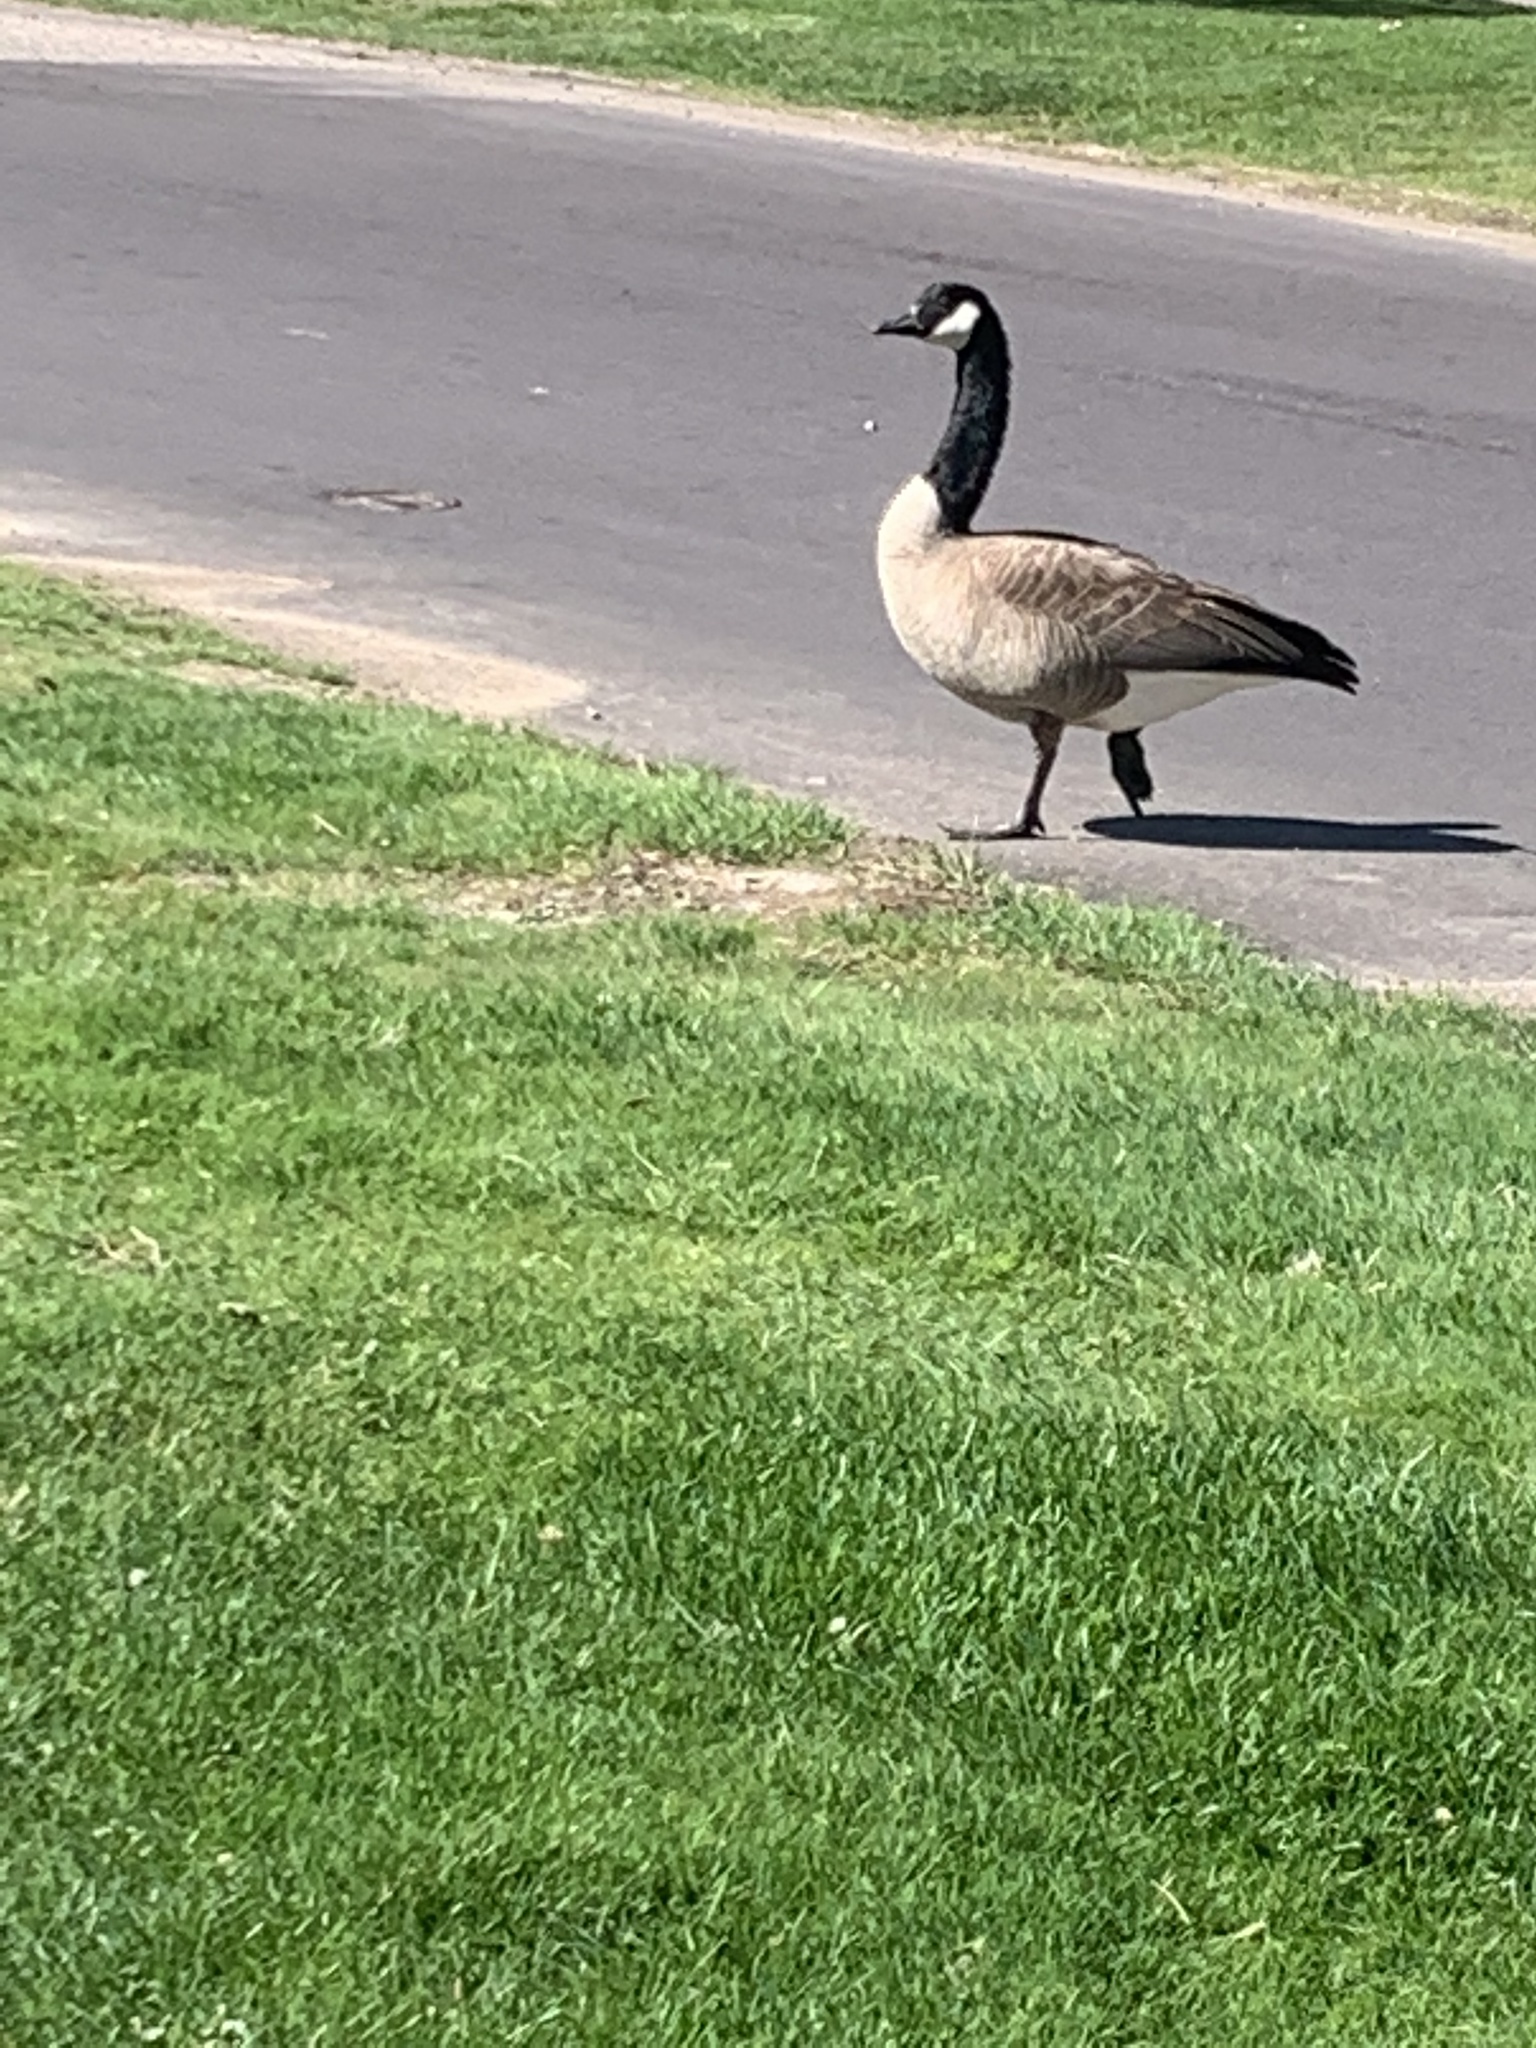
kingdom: Animalia
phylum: Chordata
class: Aves
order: Anseriformes
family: Anatidae
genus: Branta
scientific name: Branta canadensis
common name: Canada goose
